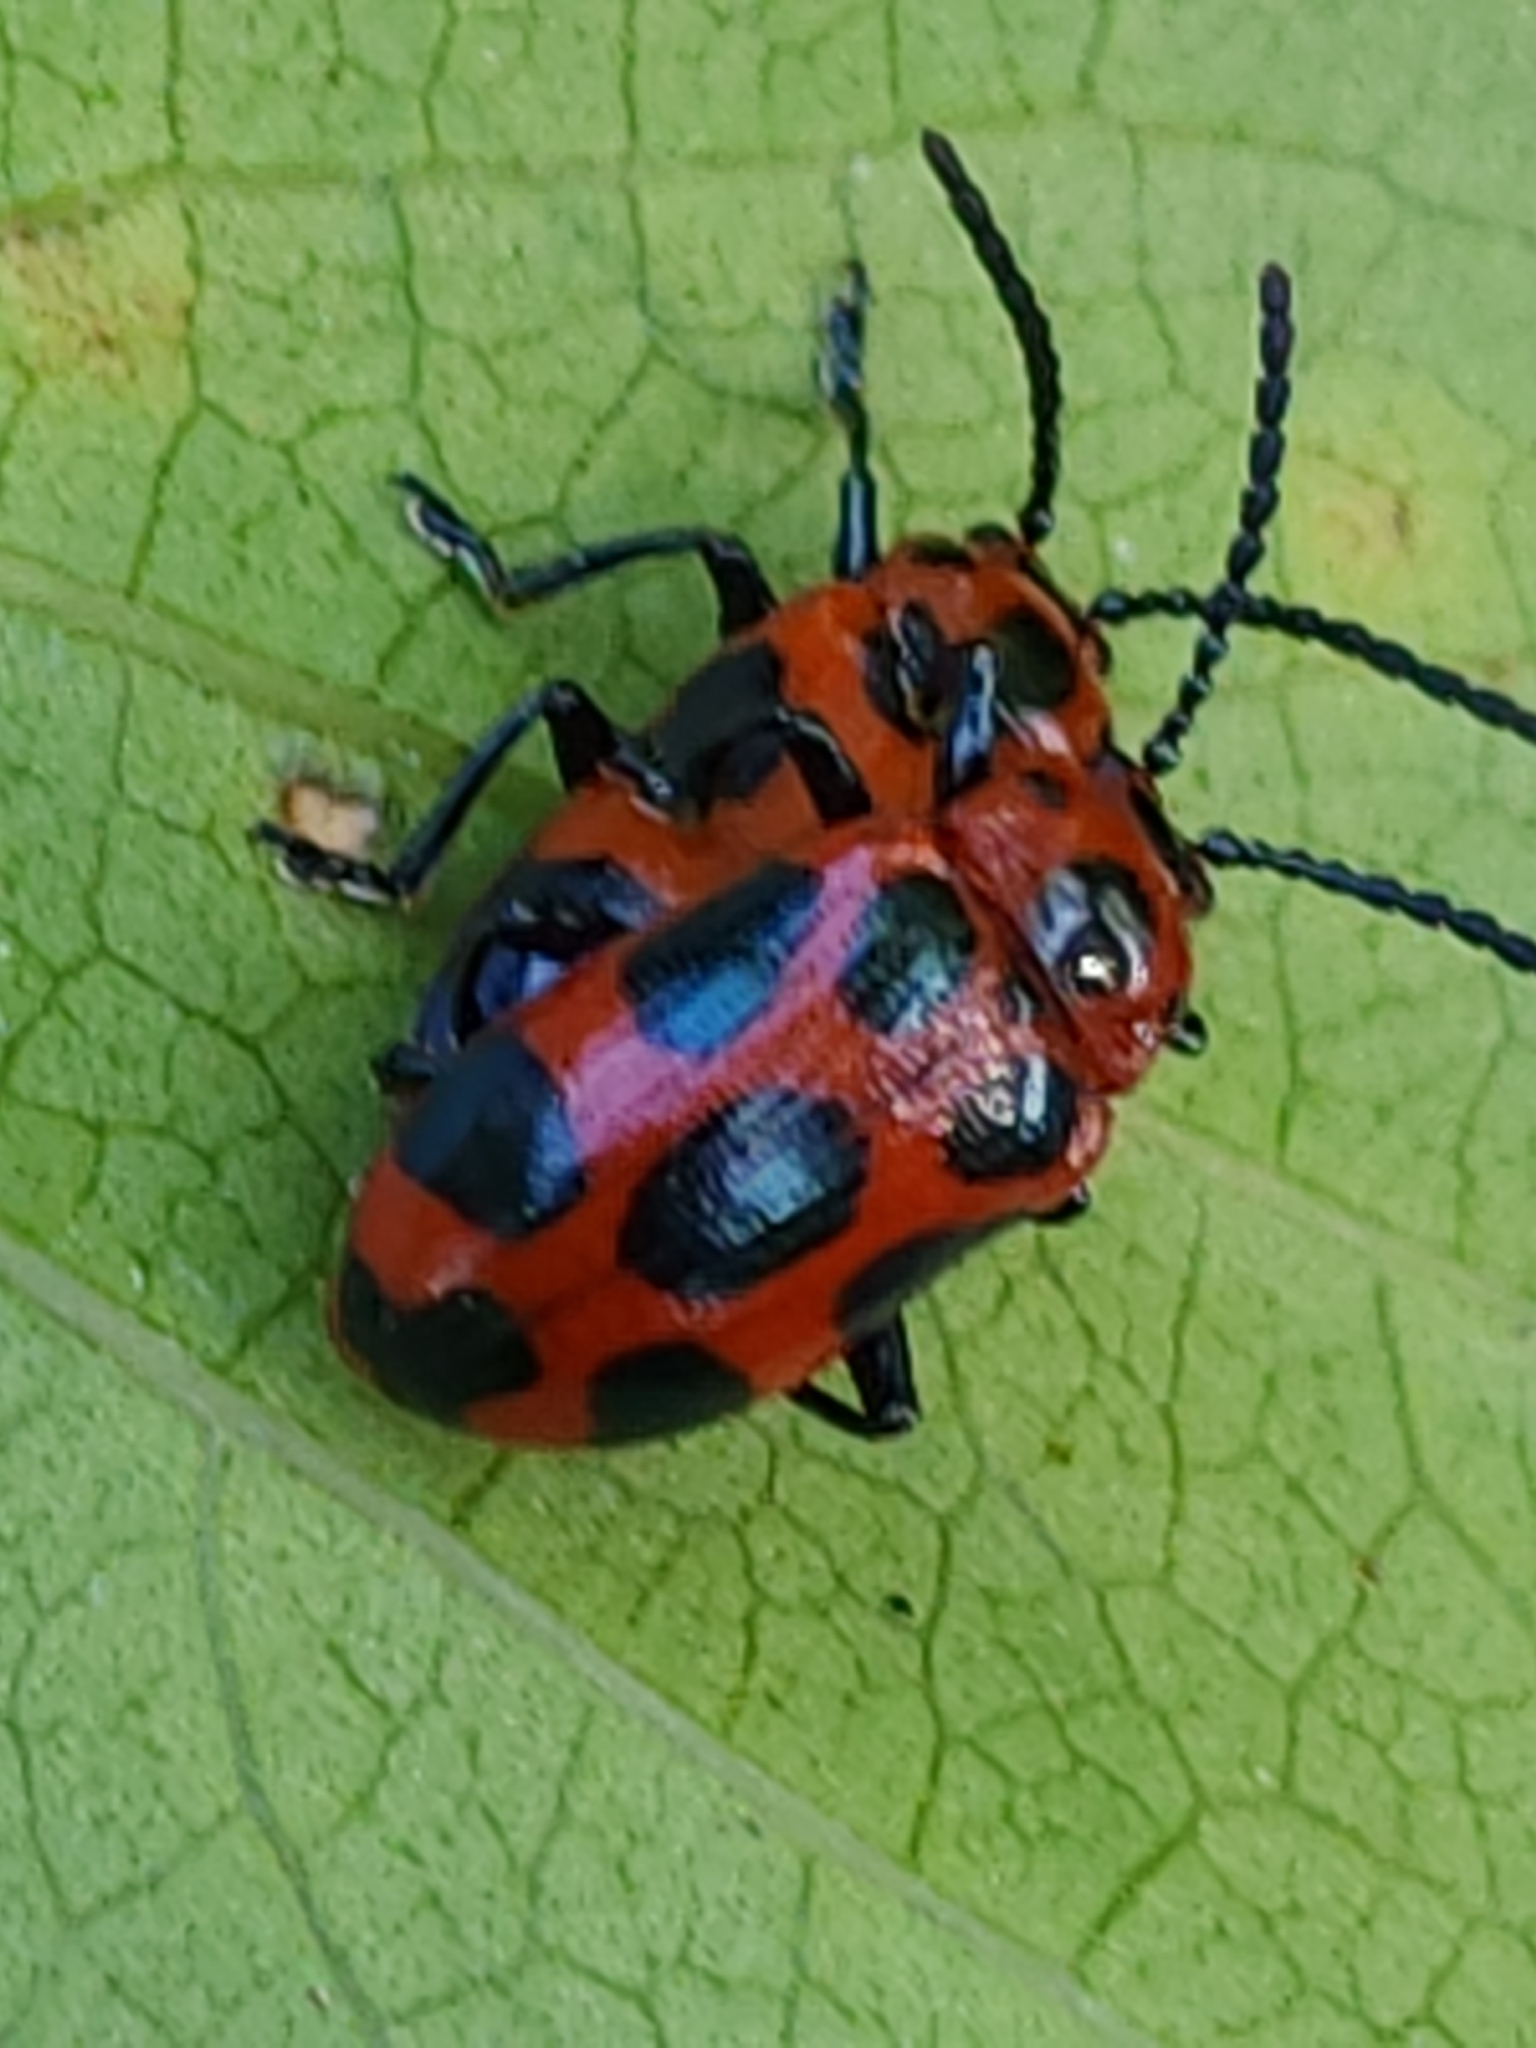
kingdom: Animalia
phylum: Arthropoda
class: Insecta
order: Coleoptera
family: Chrysomelidae
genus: Phyllocharis
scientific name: Phyllocharis
